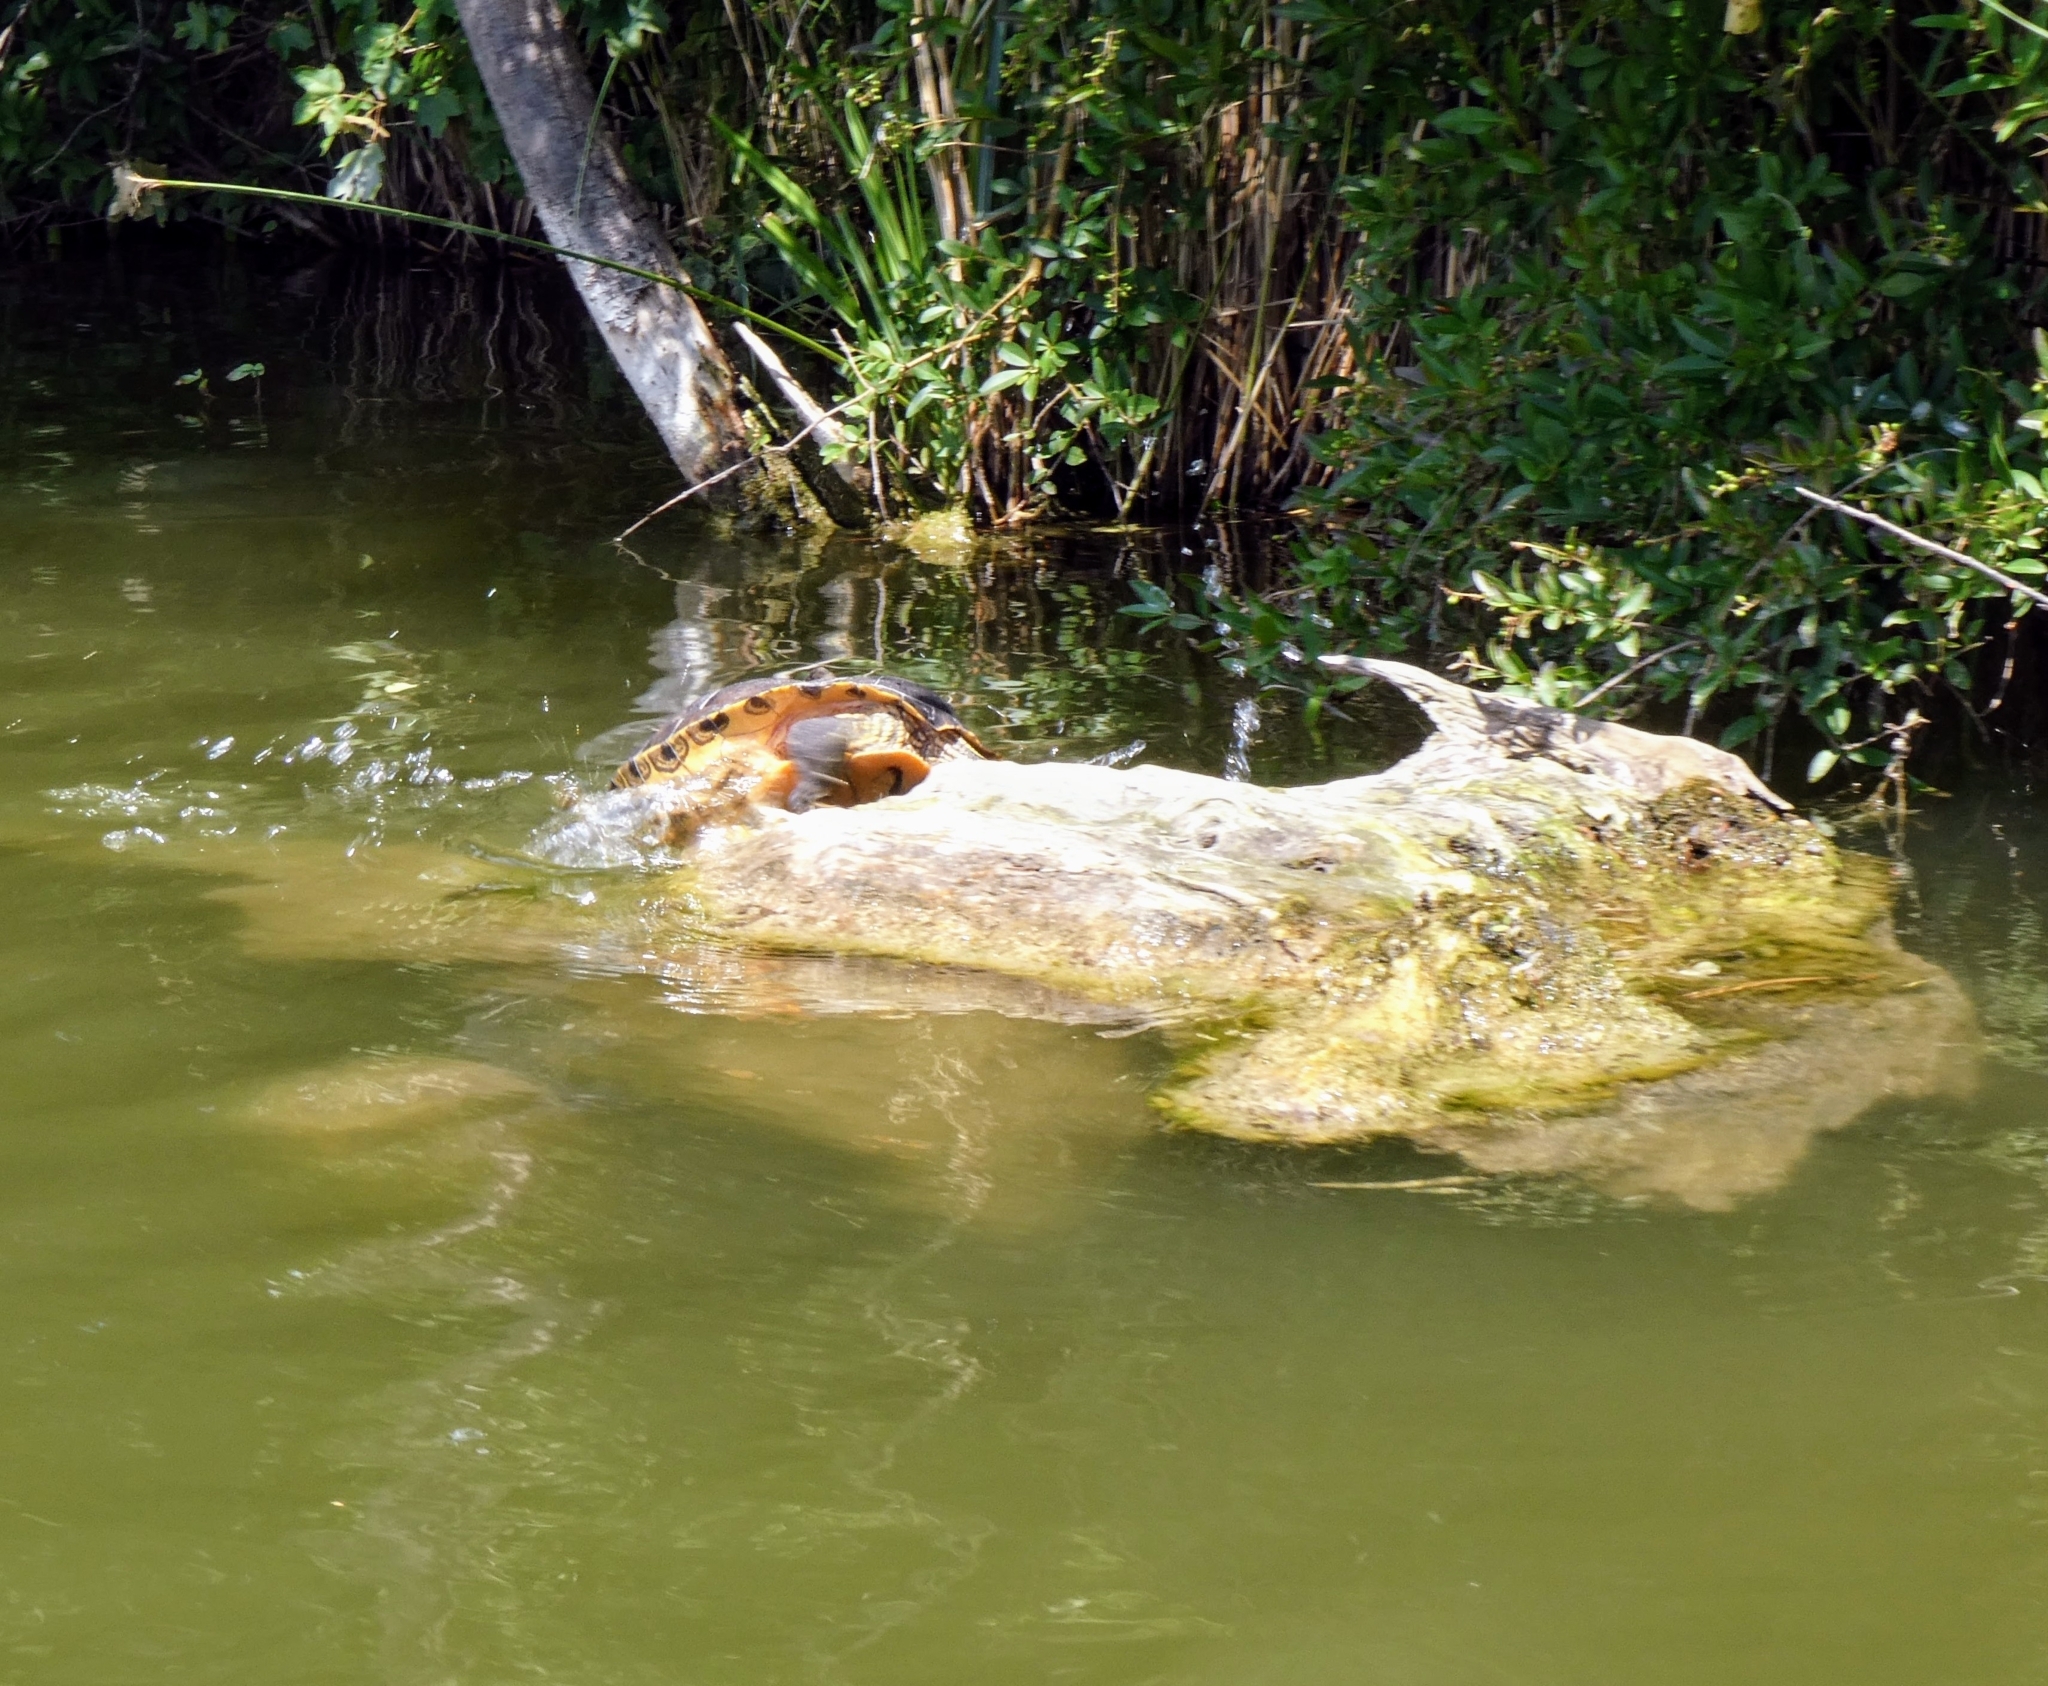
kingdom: Animalia
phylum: Chordata
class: Testudines
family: Emydidae
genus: Trachemys
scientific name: Trachemys scripta
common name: Slider
